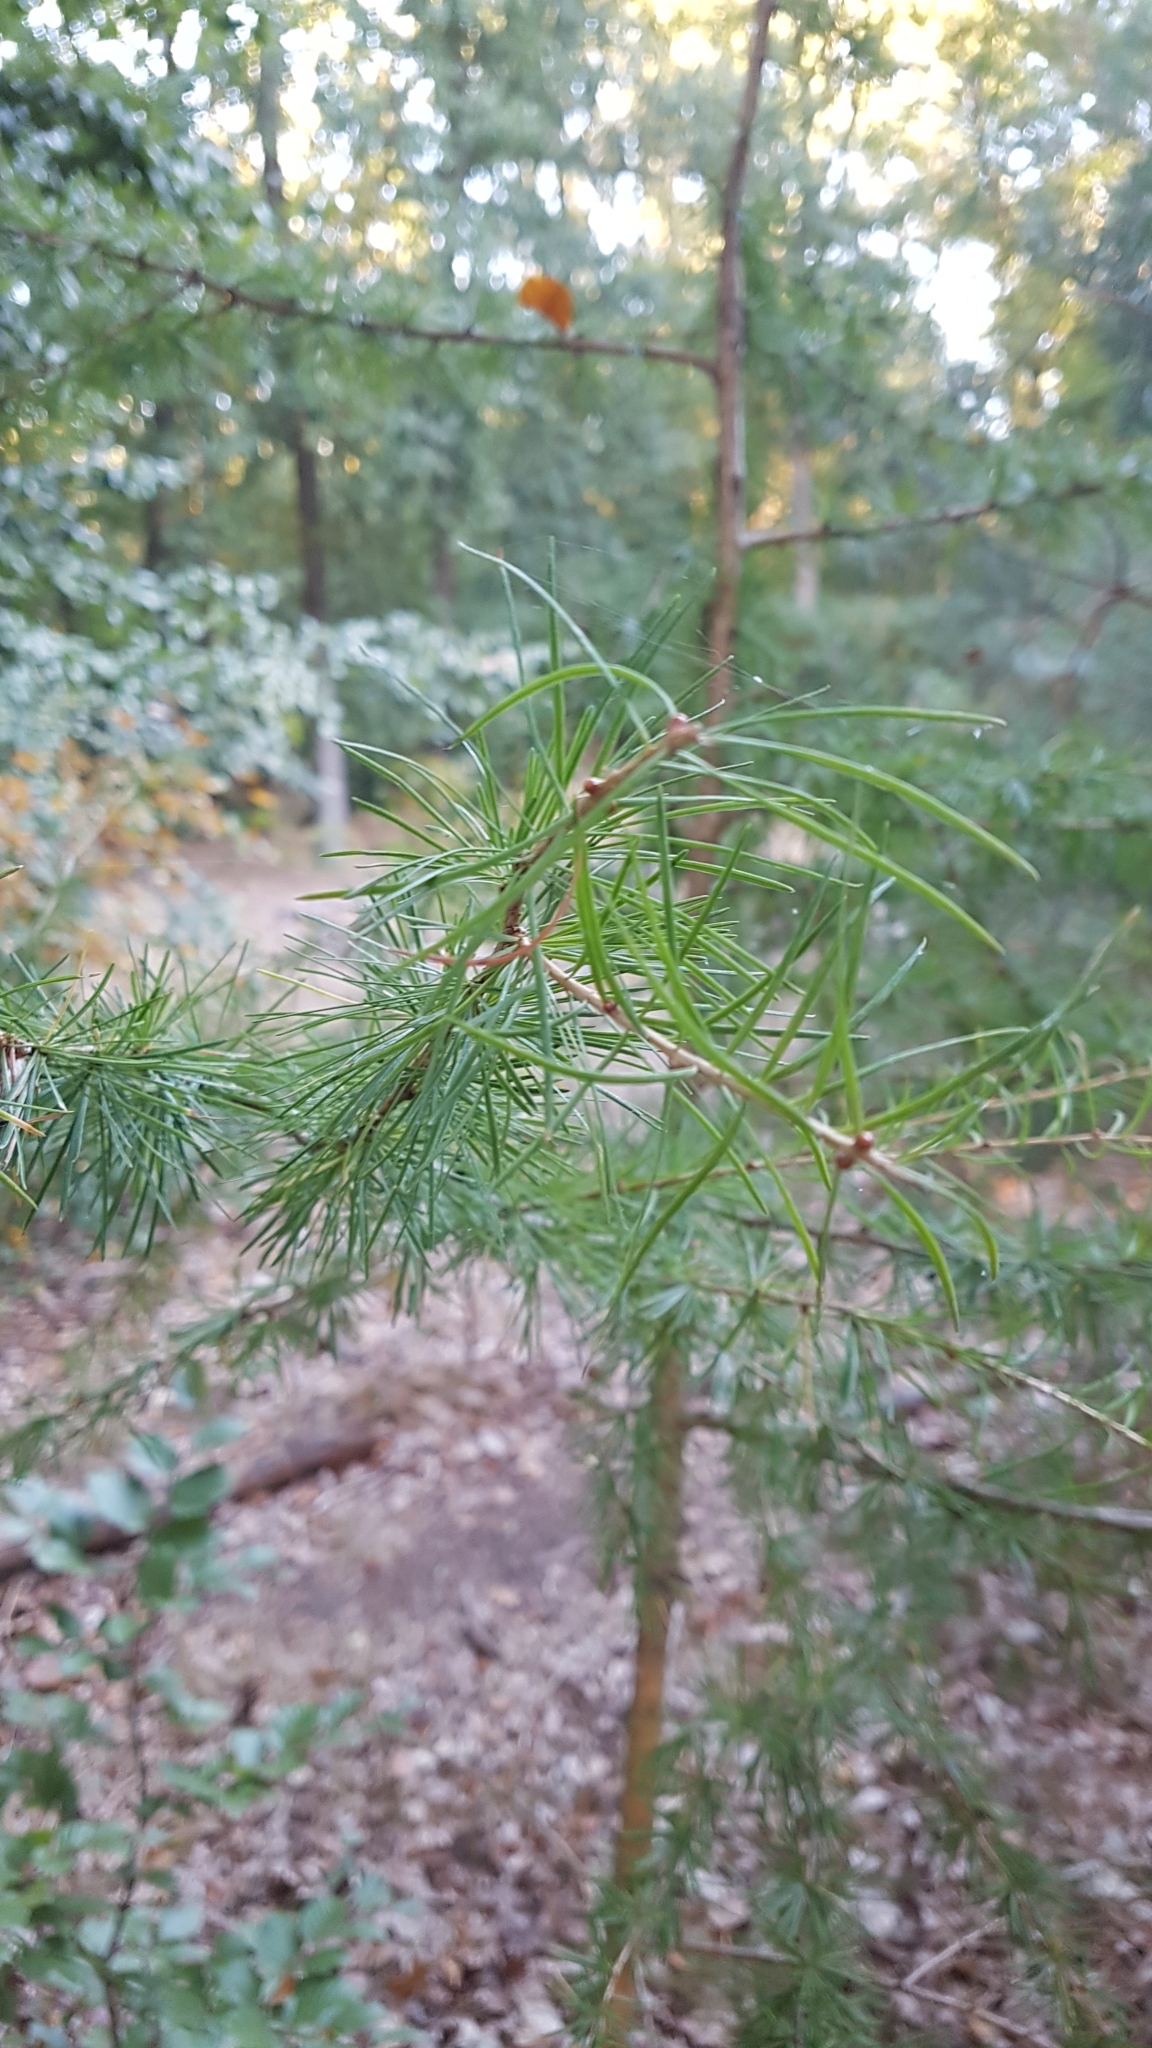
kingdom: Plantae
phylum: Tracheophyta
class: Pinopsida
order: Pinales
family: Pinaceae
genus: Larix
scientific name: Larix decidua
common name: European larch
